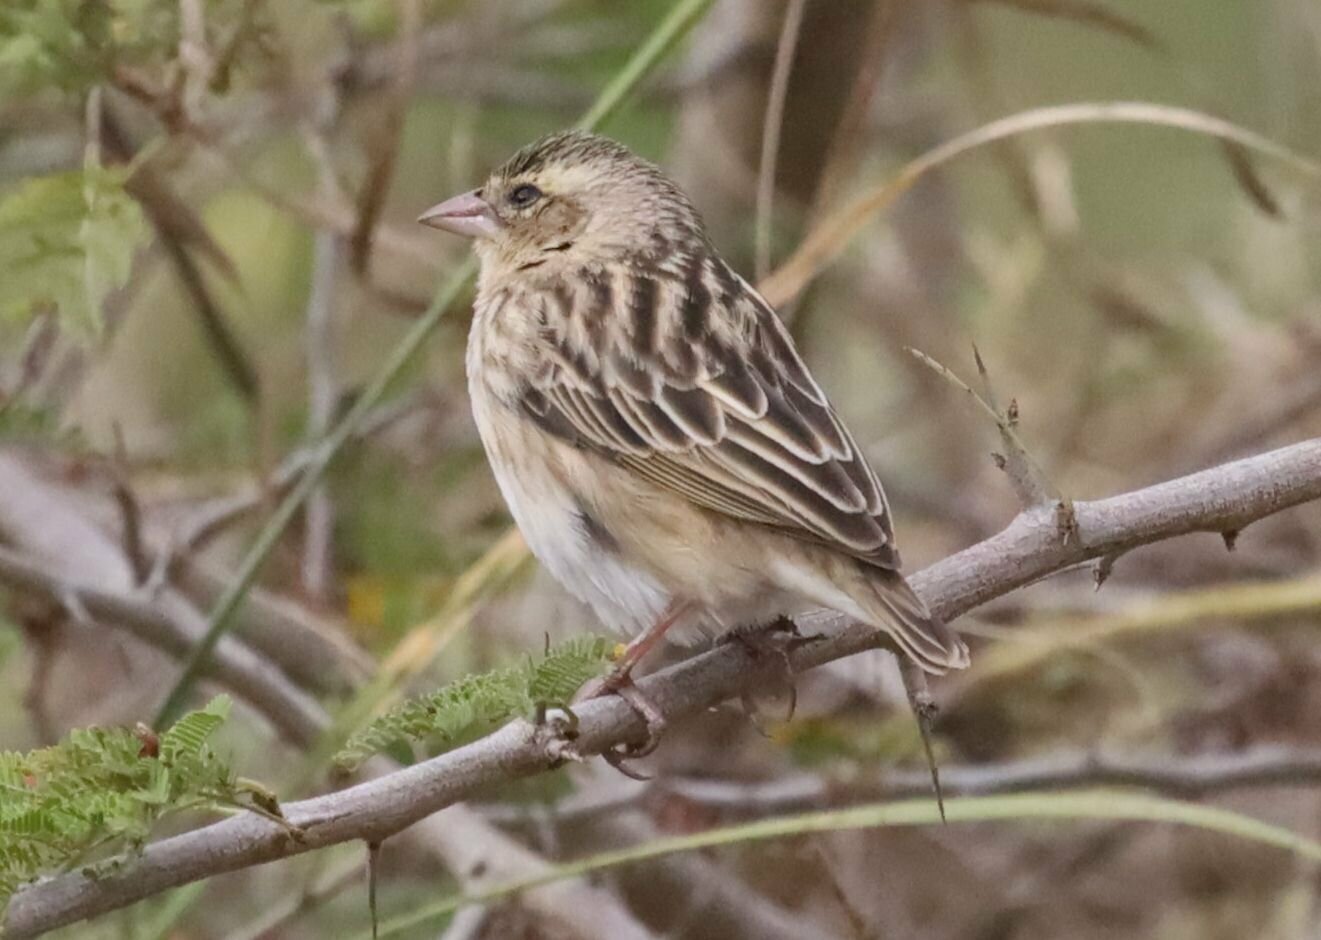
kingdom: Animalia
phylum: Chordata
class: Aves
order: Passeriformes
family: Ploceidae
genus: Euplectes
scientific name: Euplectes orix
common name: Southern red bishop
